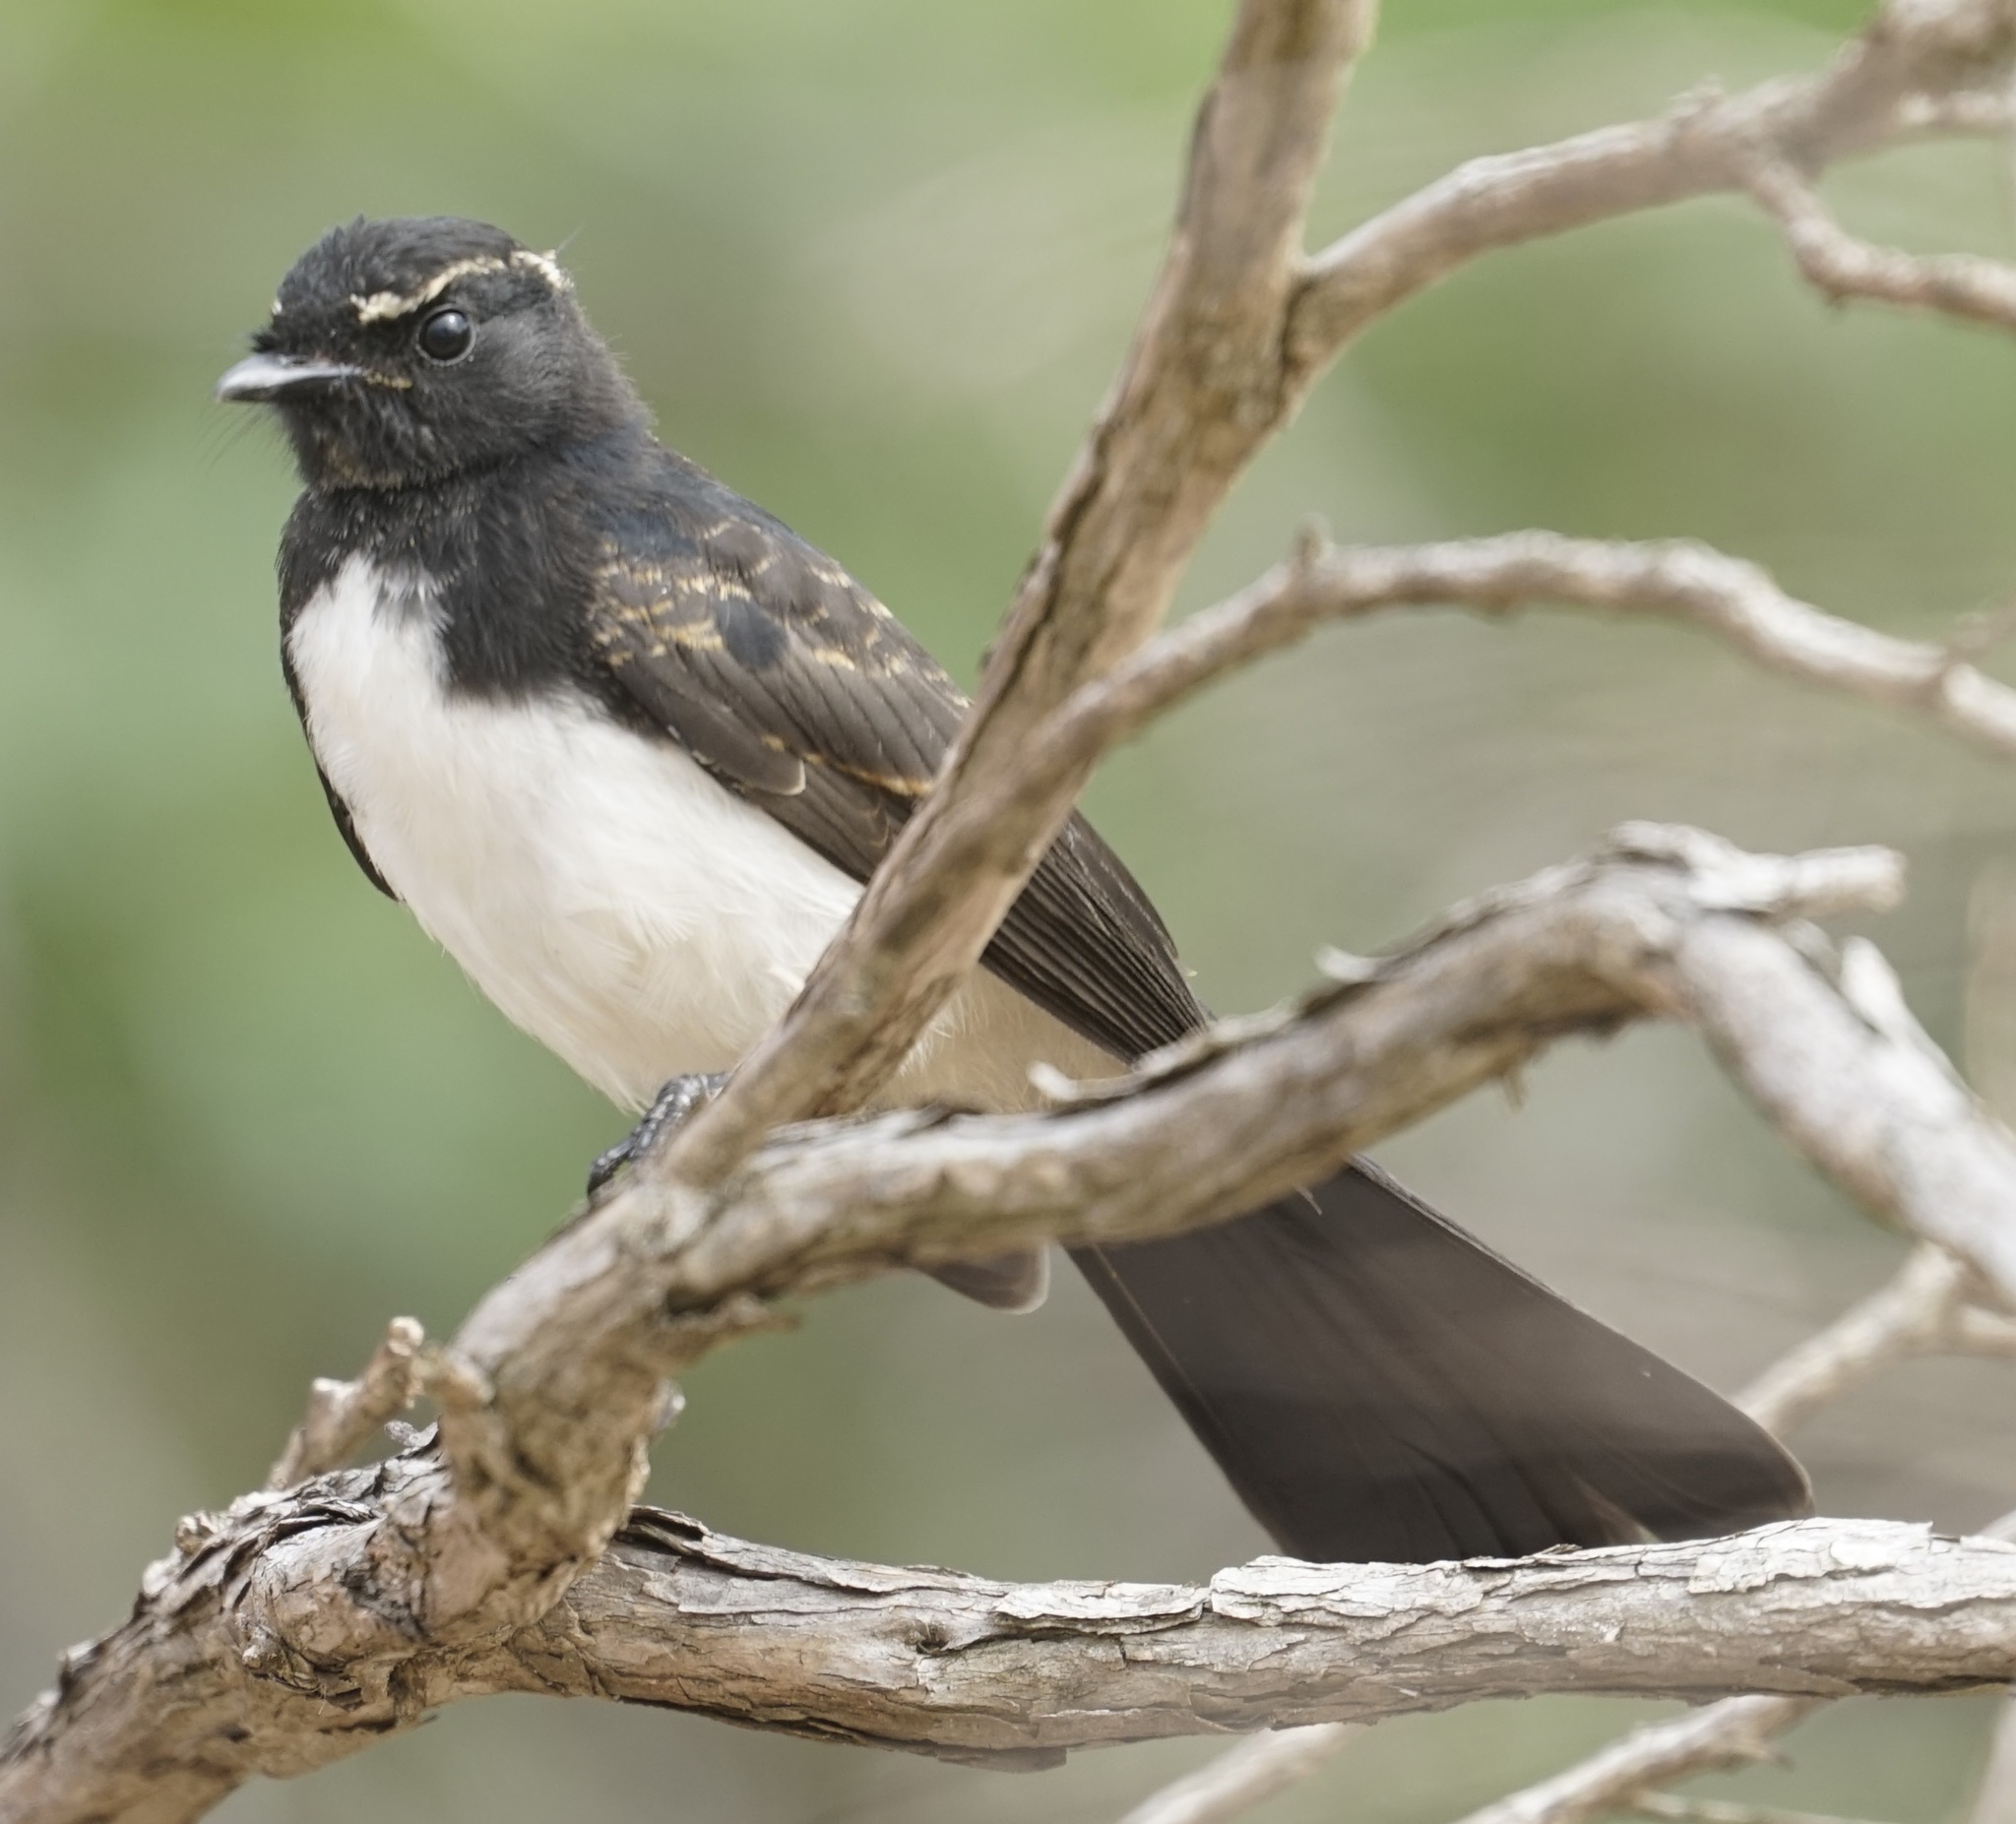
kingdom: Animalia
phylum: Chordata
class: Aves
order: Passeriformes
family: Rhipiduridae
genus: Rhipidura
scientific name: Rhipidura leucophrys
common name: Willie wagtail
